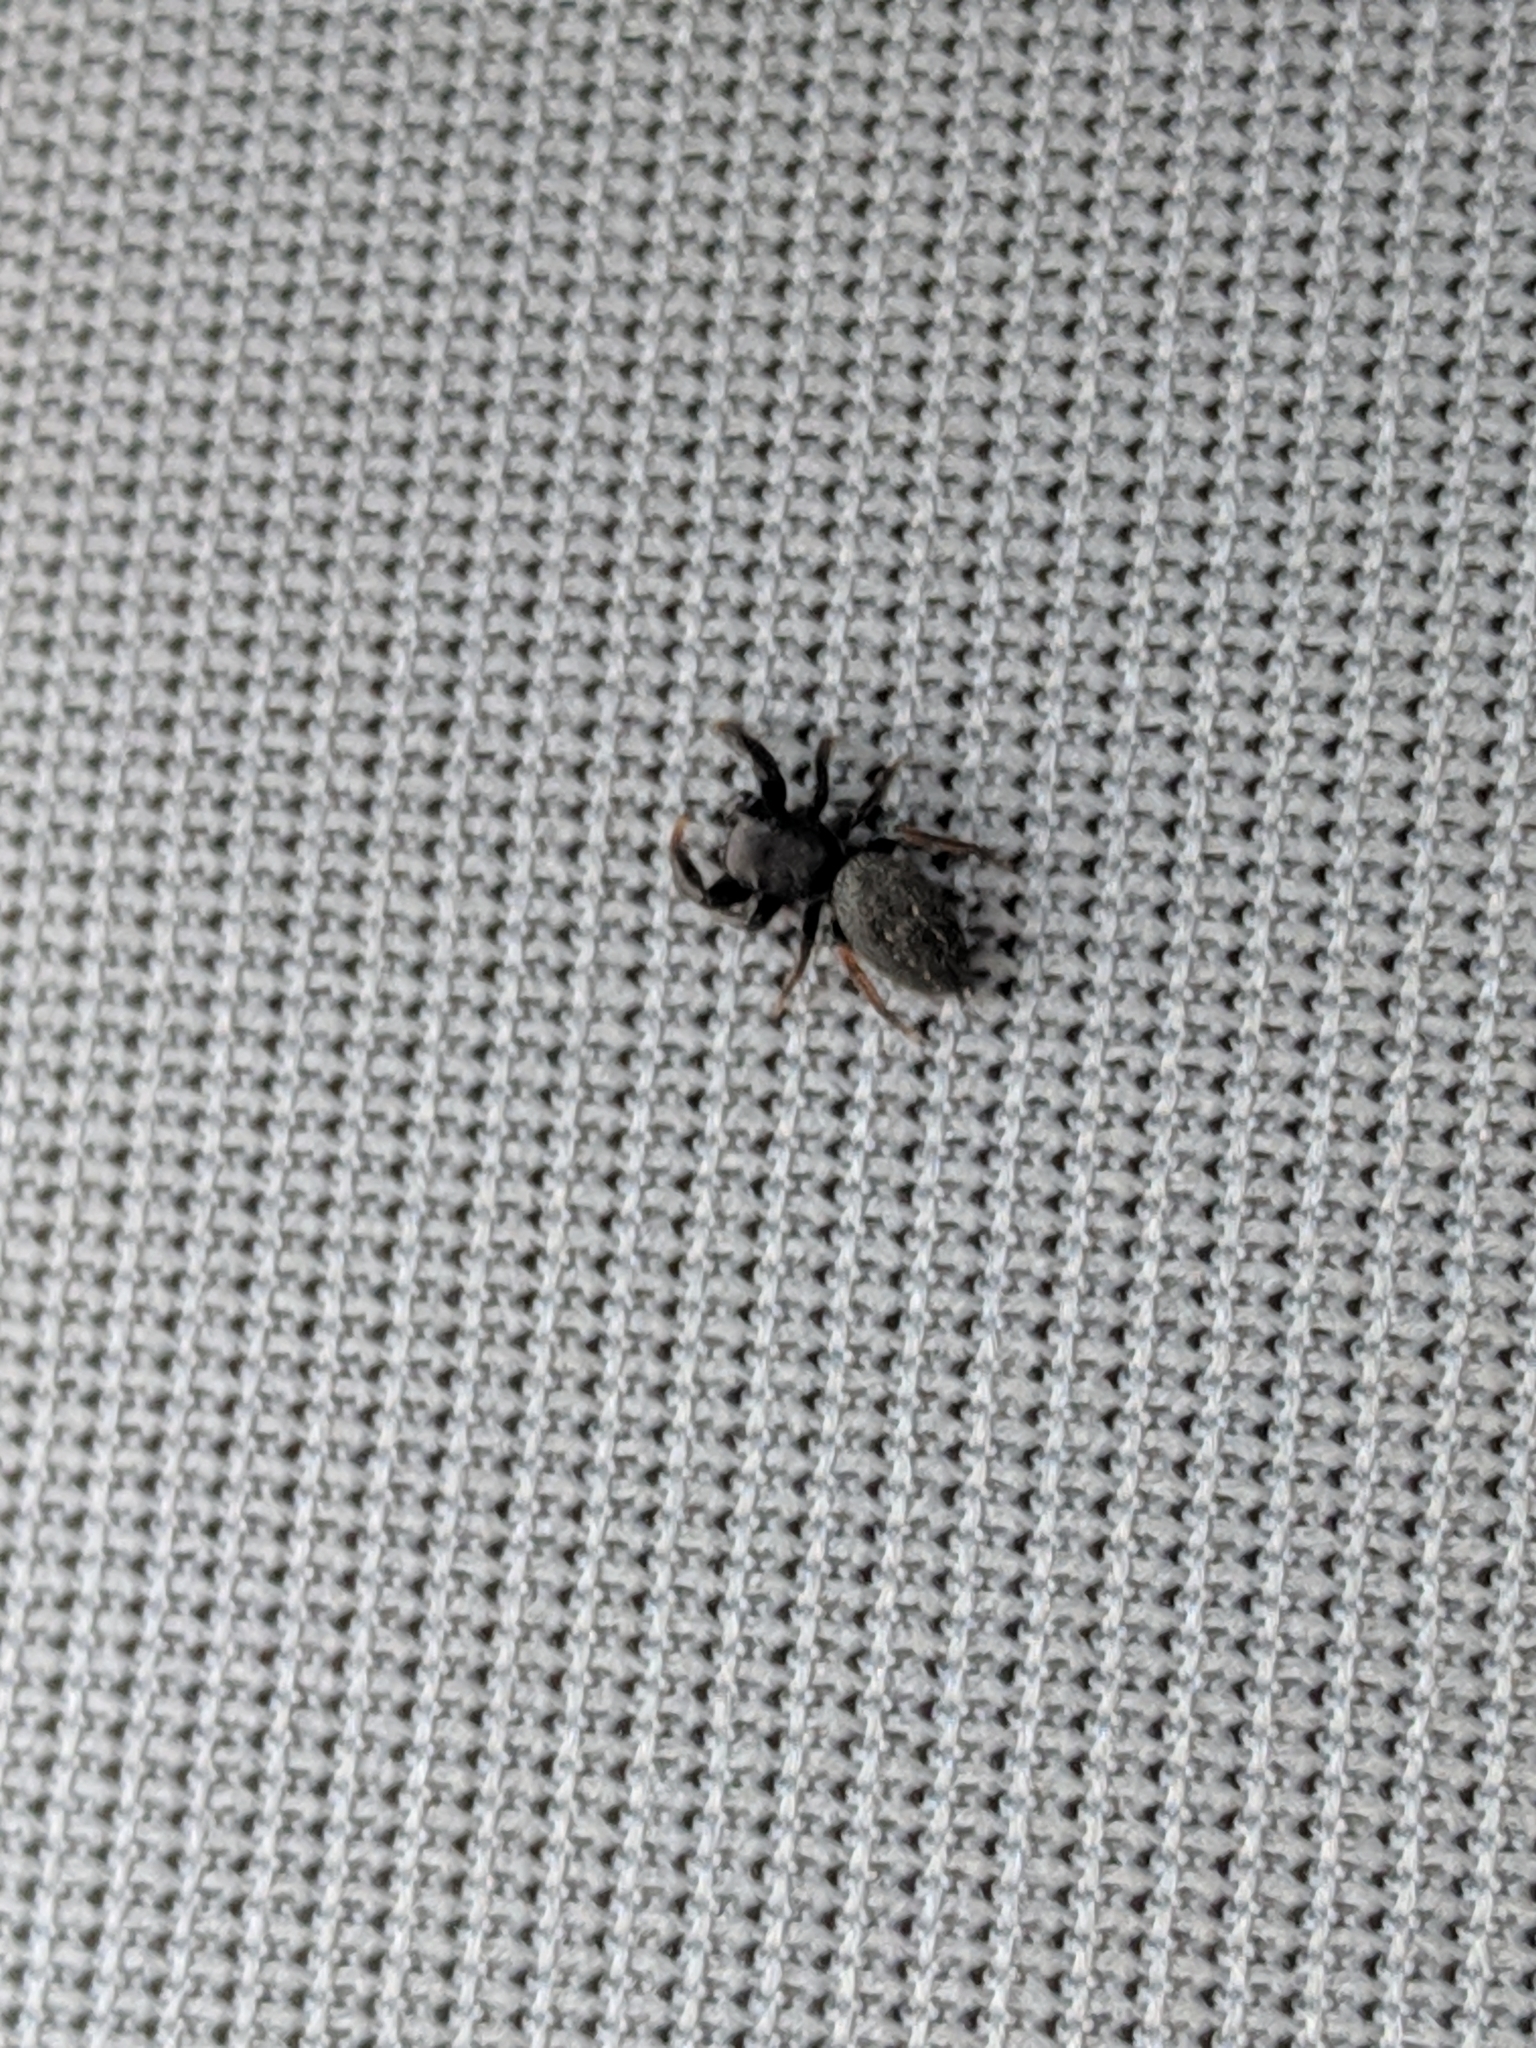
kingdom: Animalia
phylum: Arthropoda
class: Arachnida
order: Araneae
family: Salticidae
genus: Metacyrba
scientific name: Metacyrba taeniola
